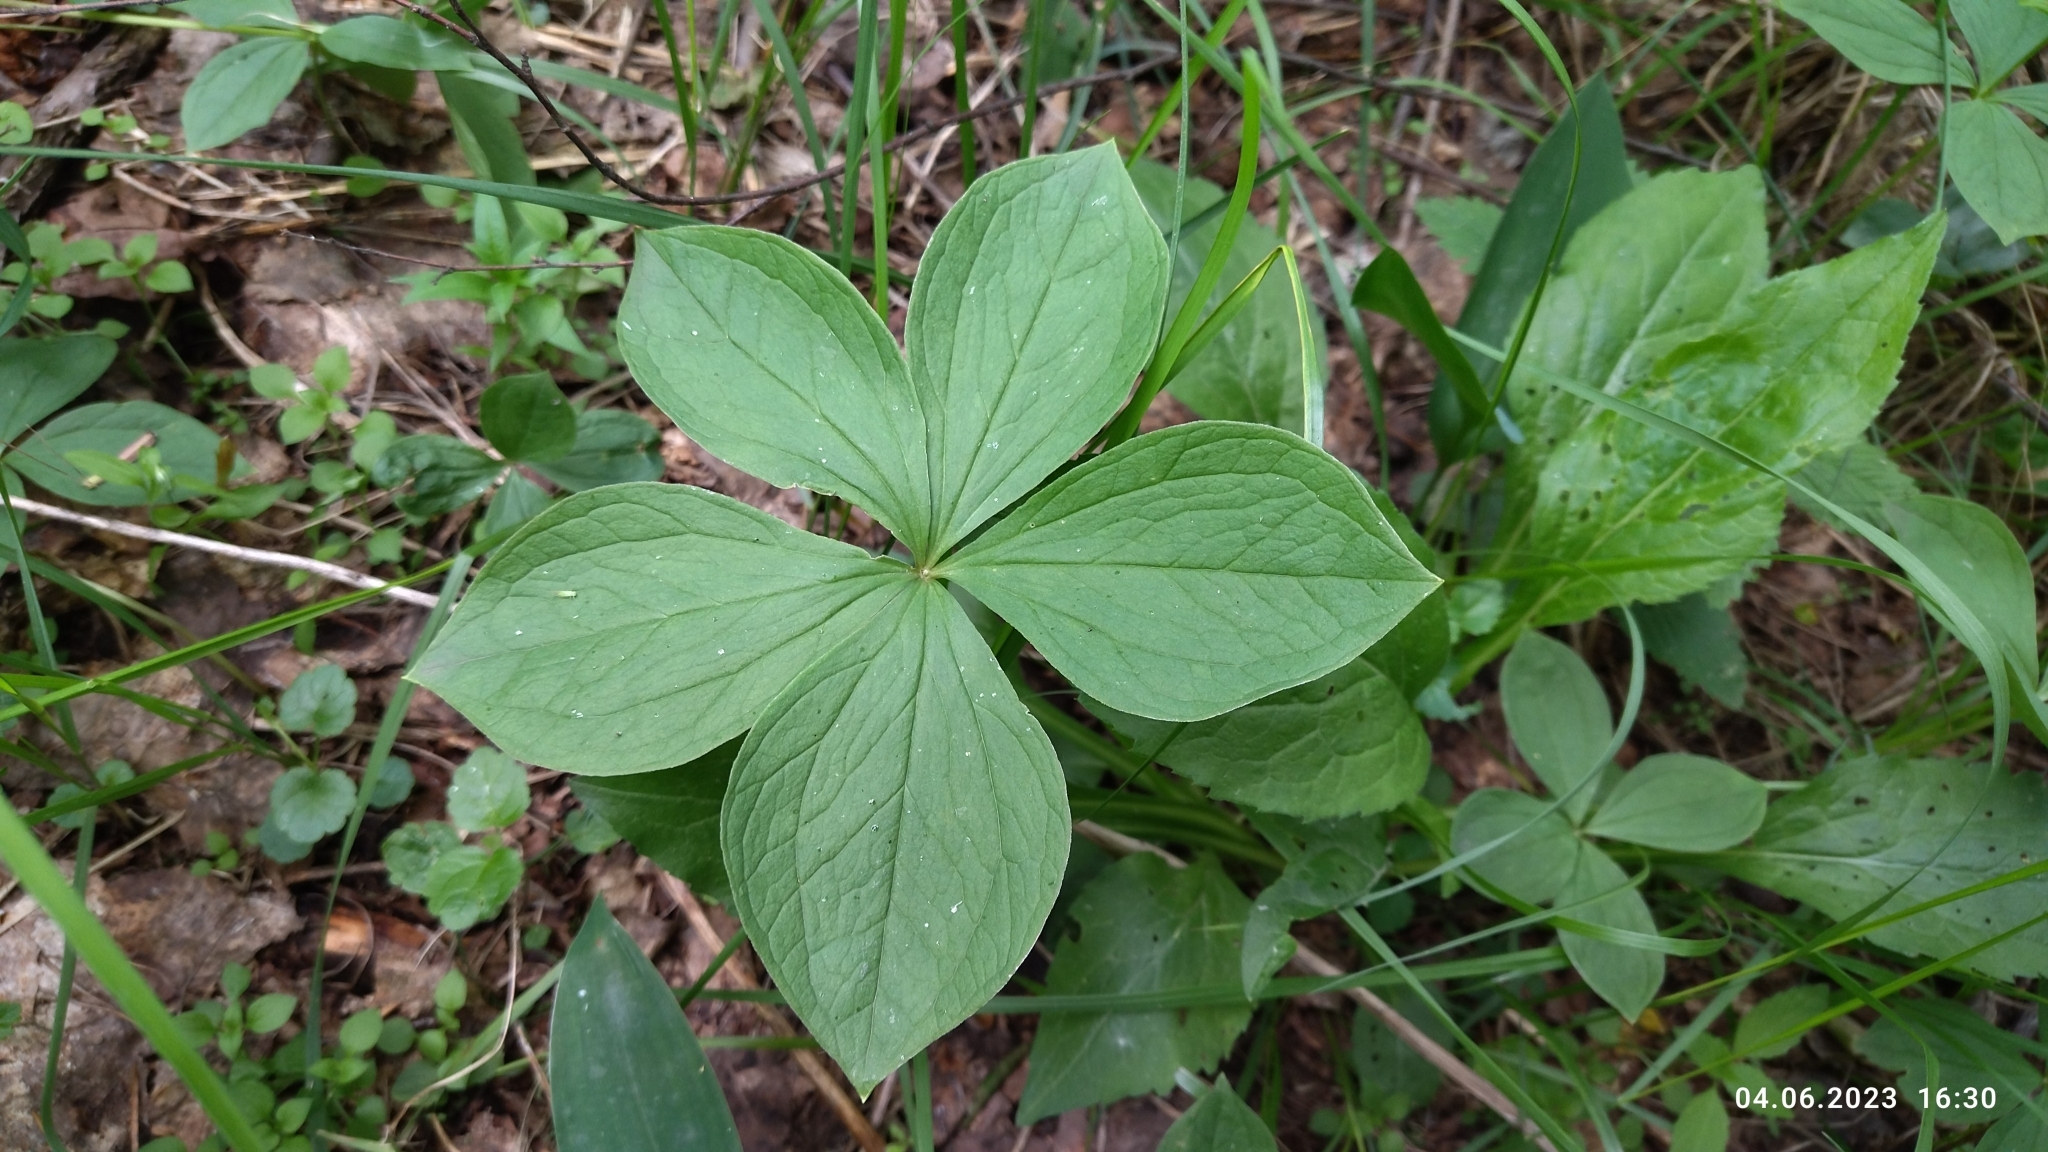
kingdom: Plantae
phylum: Tracheophyta
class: Liliopsida
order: Liliales
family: Melanthiaceae
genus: Paris
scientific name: Paris quadrifolia
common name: Herb-paris
